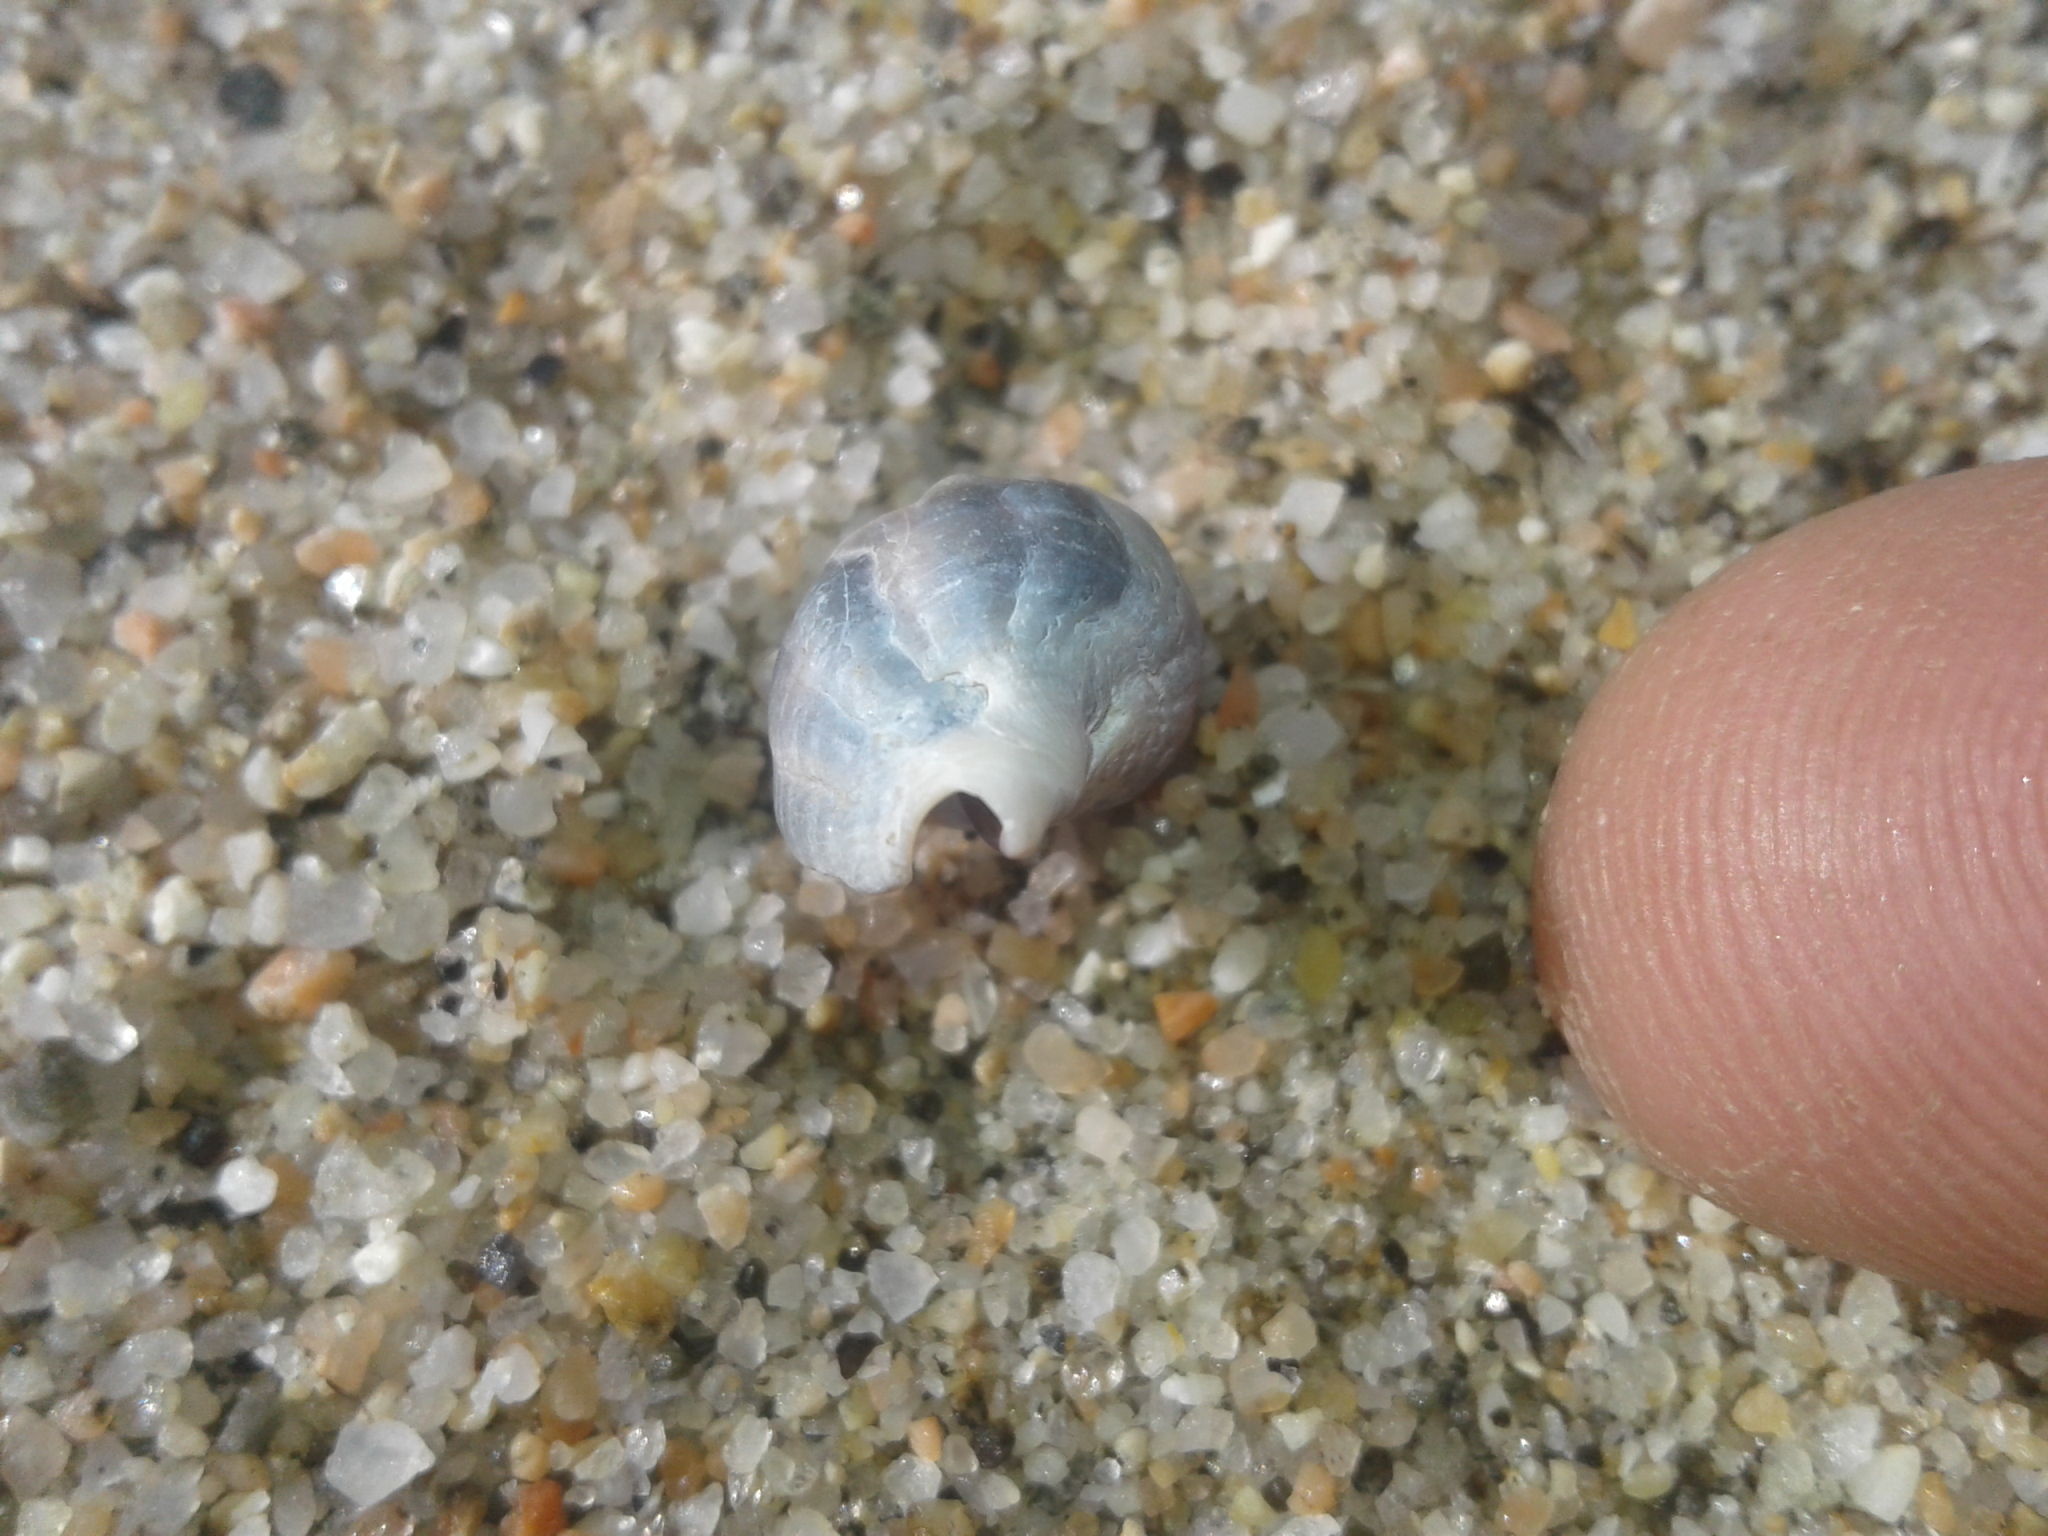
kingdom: Animalia
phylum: Mollusca
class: Gastropoda
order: Neogastropoda
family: Cominellidae
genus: Cominella
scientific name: Cominella glandiformis
